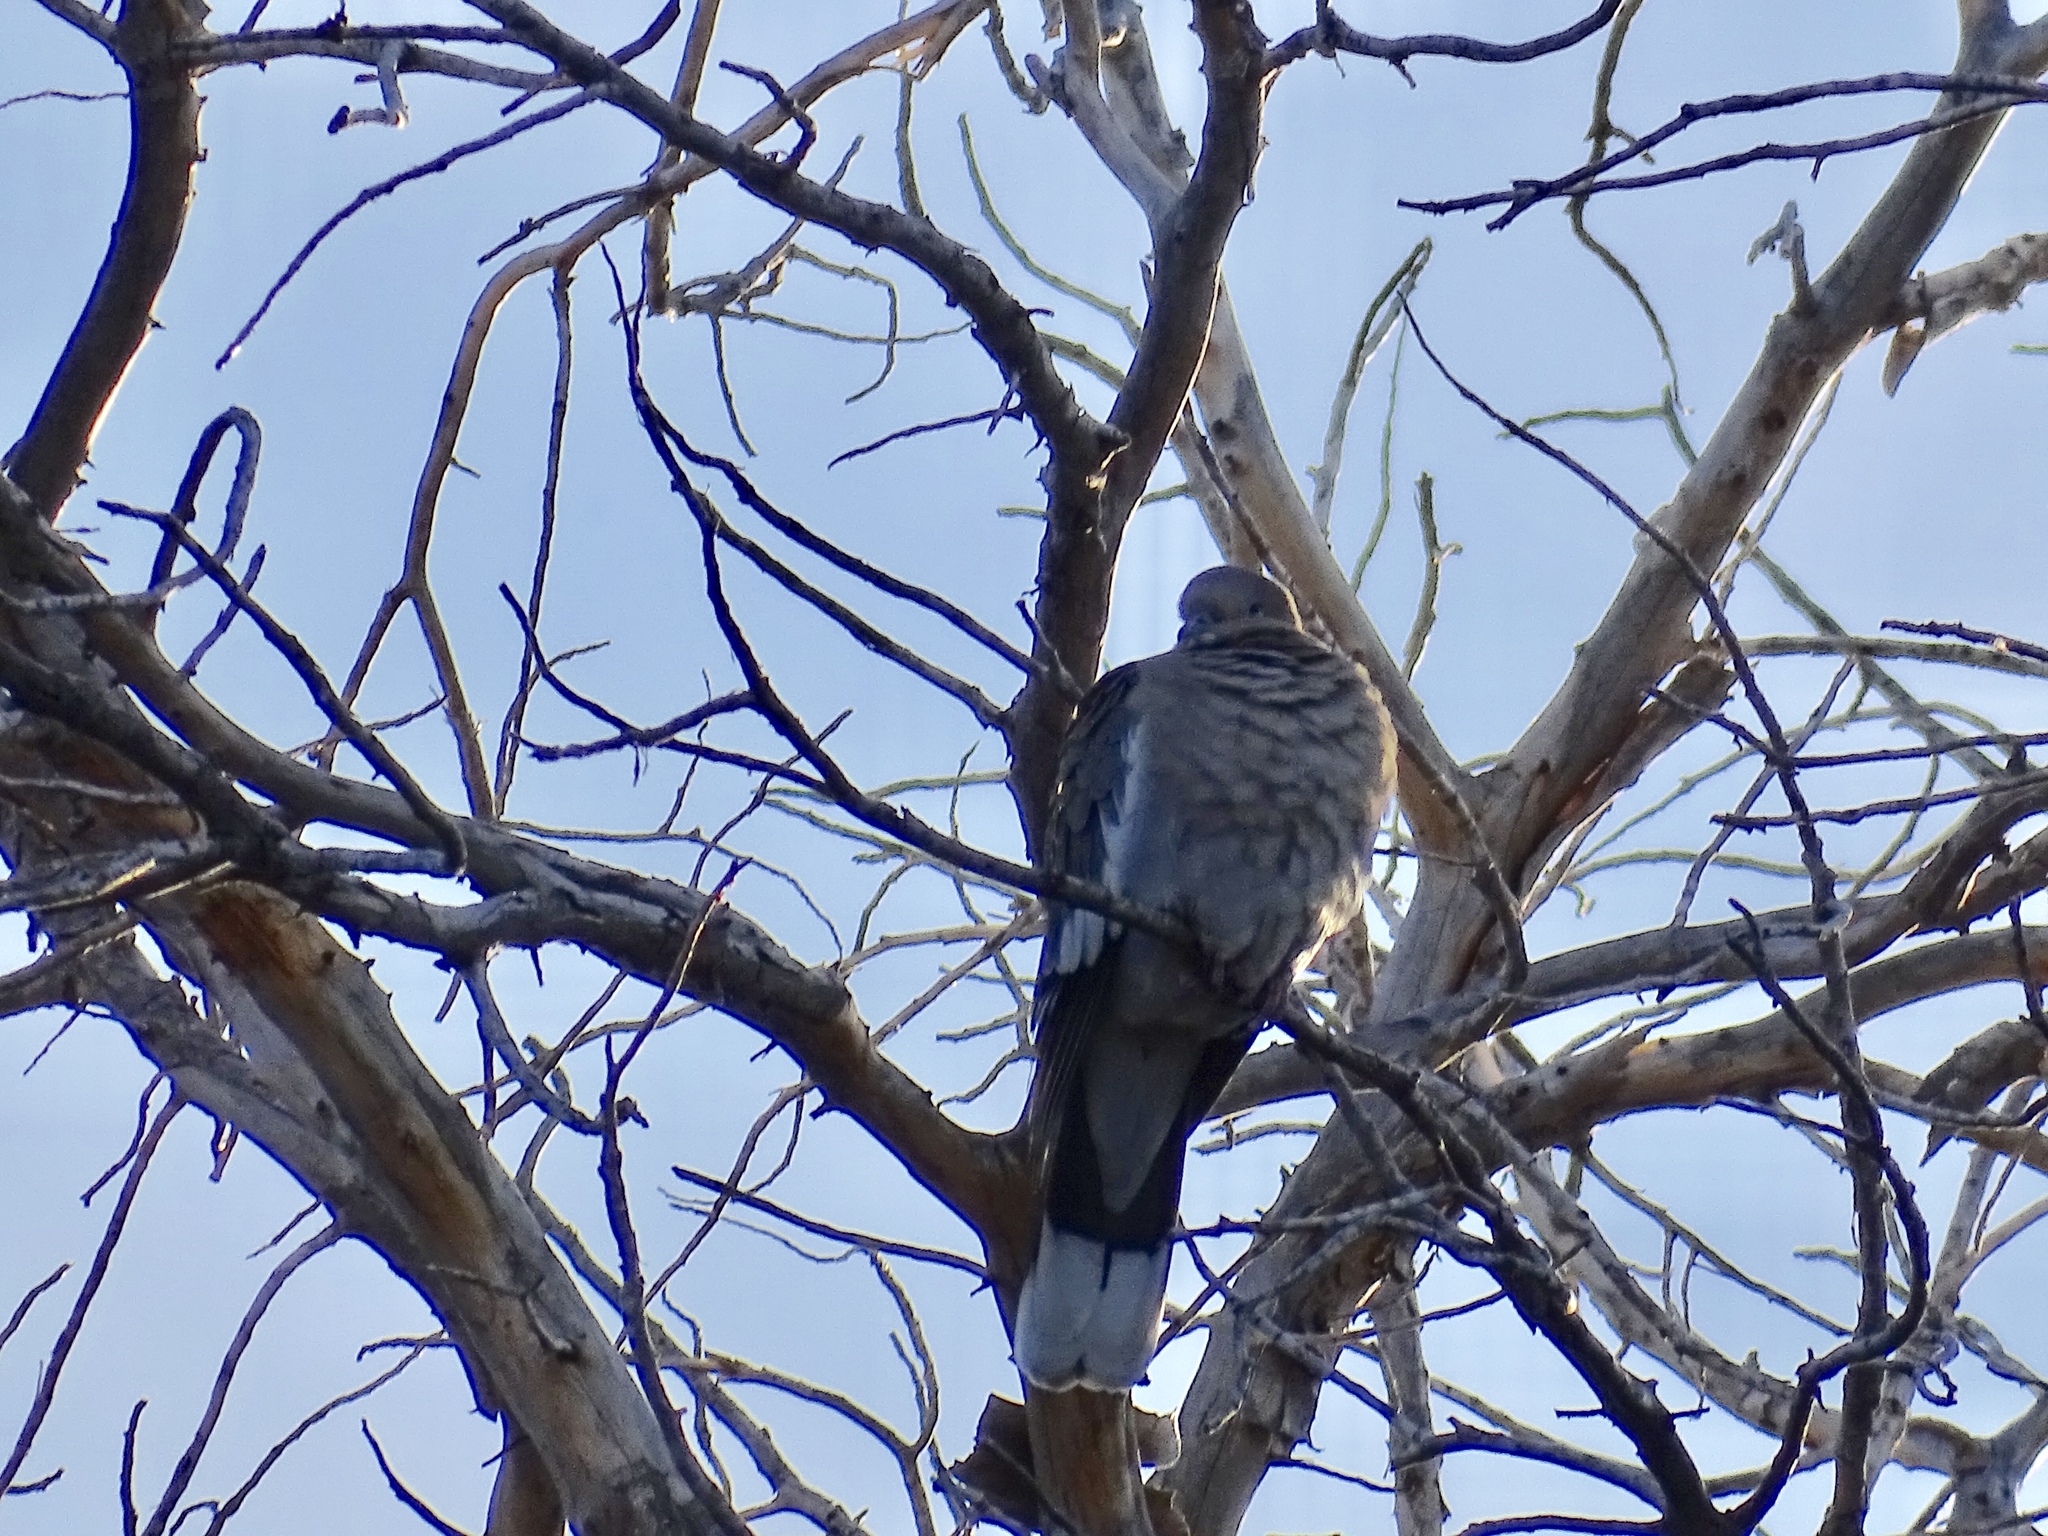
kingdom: Animalia
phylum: Chordata
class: Aves
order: Columbiformes
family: Columbidae
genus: Zenaida
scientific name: Zenaida asiatica
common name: White-winged dove
